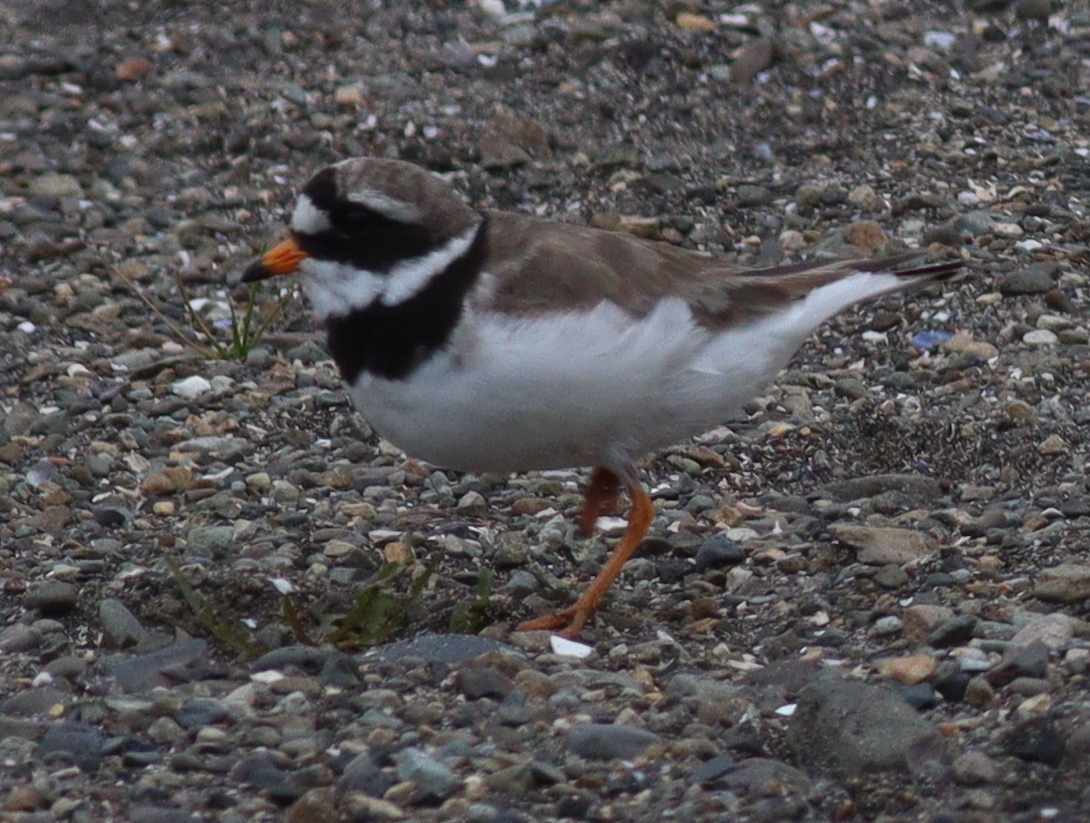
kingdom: Animalia
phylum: Chordata
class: Aves
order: Charadriiformes
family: Charadriidae
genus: Charadrius
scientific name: Charadrius hiaticula
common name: Common ringed plover
